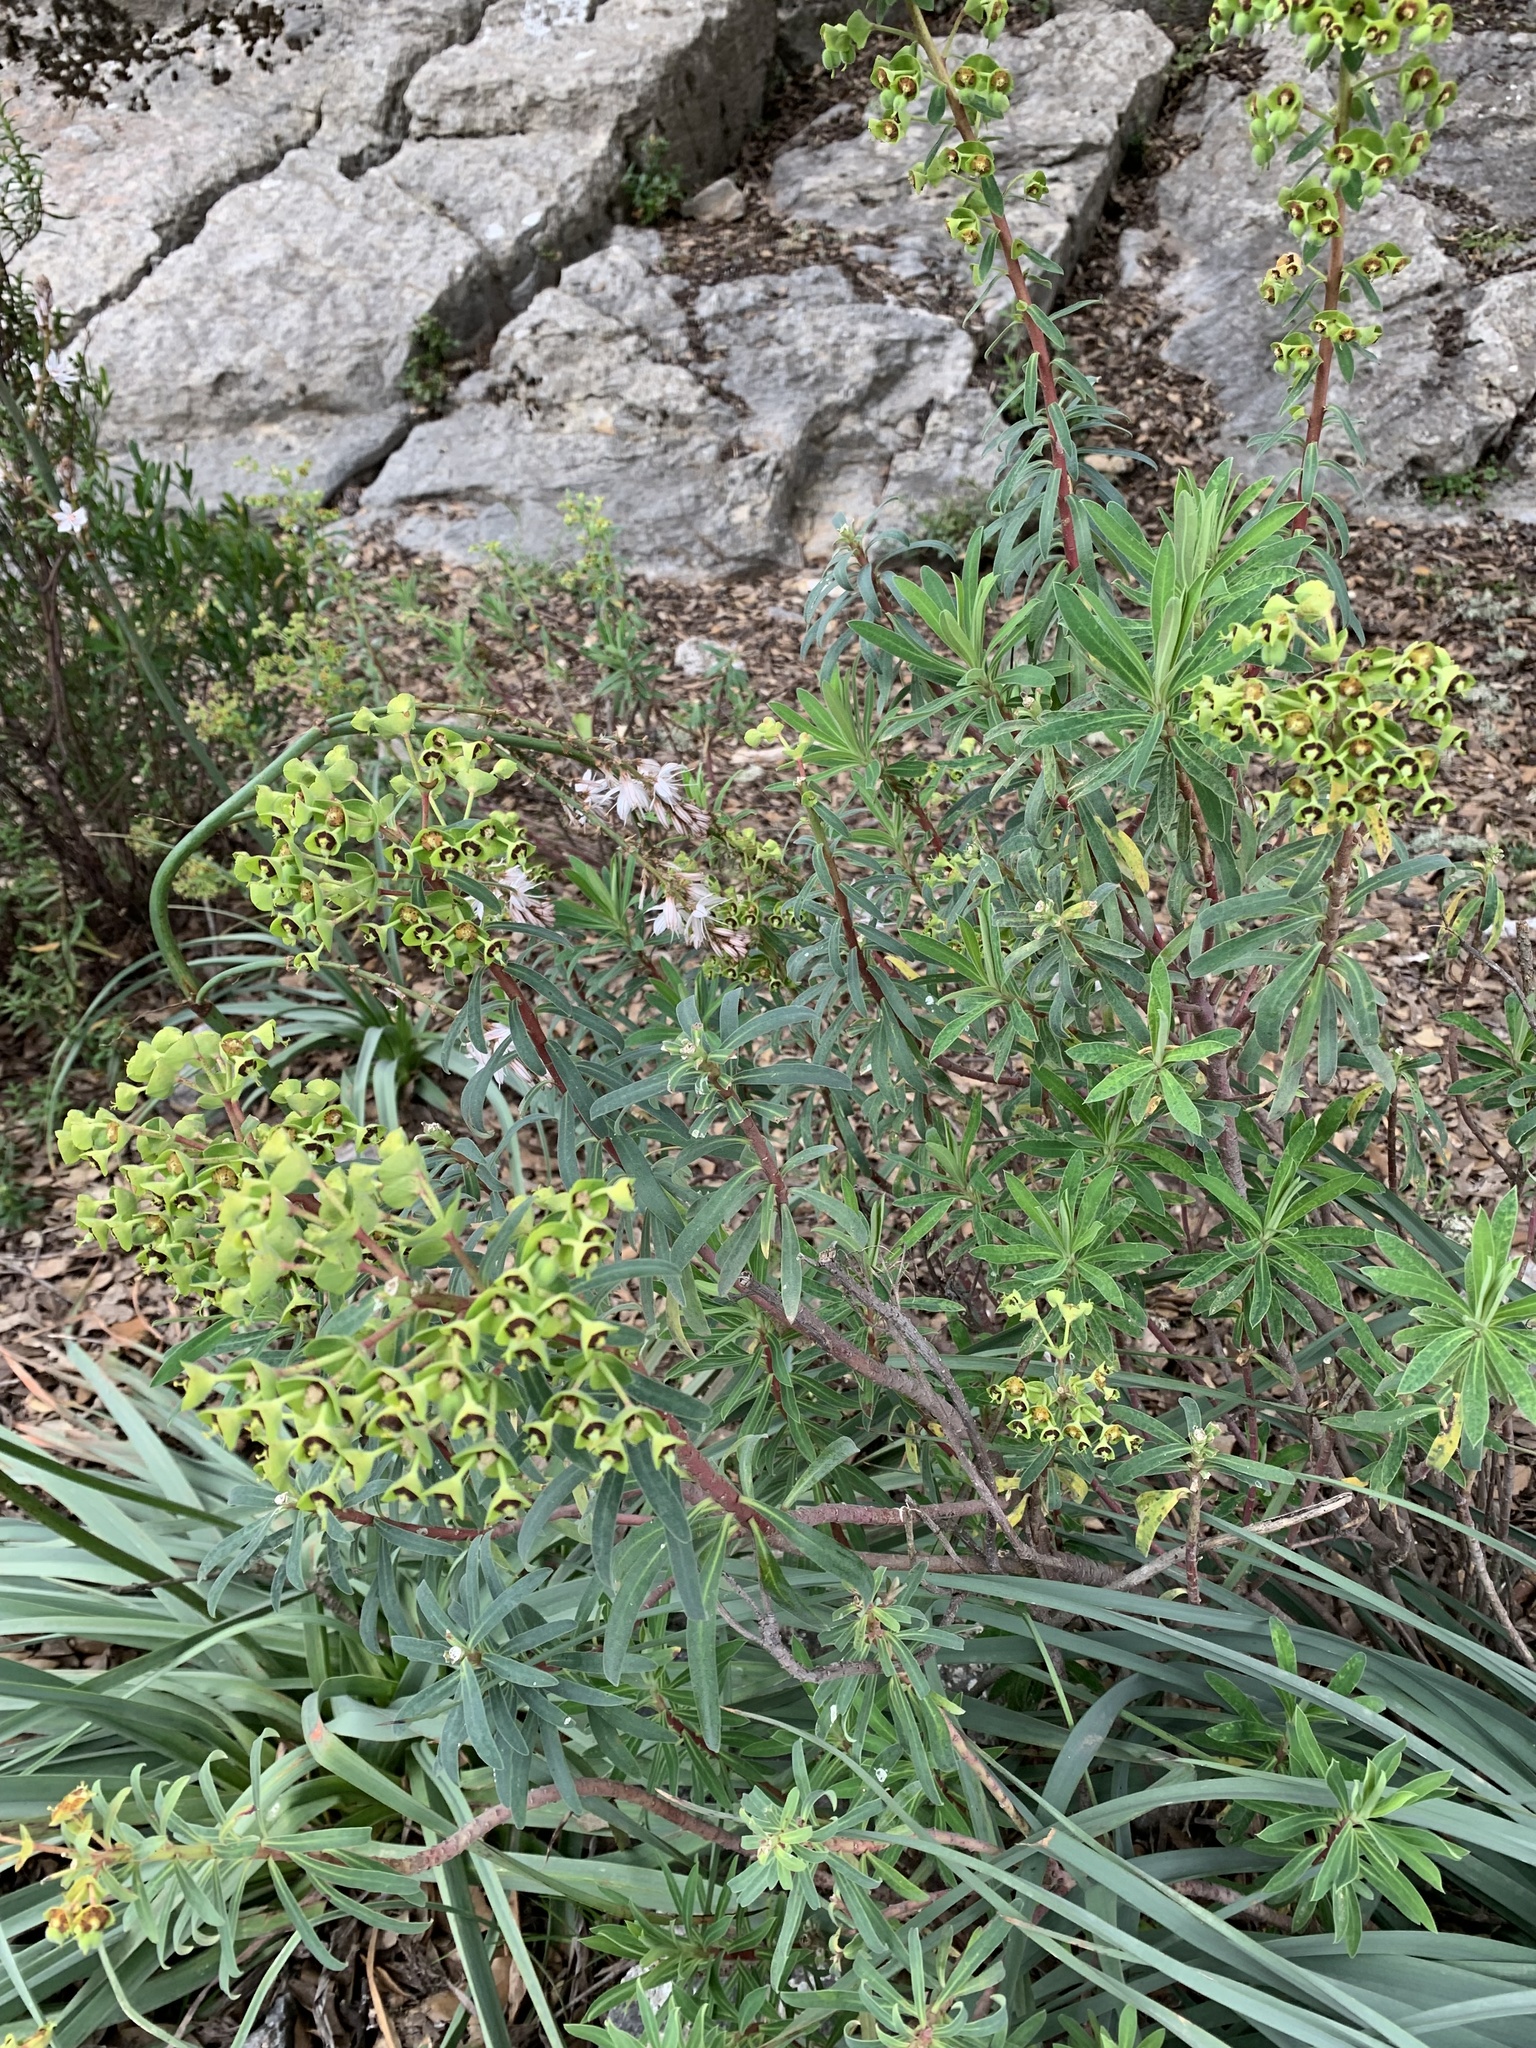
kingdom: Plantae
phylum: Tracheophyta
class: Magnoliopsida
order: Malpighiales
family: Euphorbiaceae
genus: Euphorbia
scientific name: Euphorbia characias
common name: Mediterranean spurge
